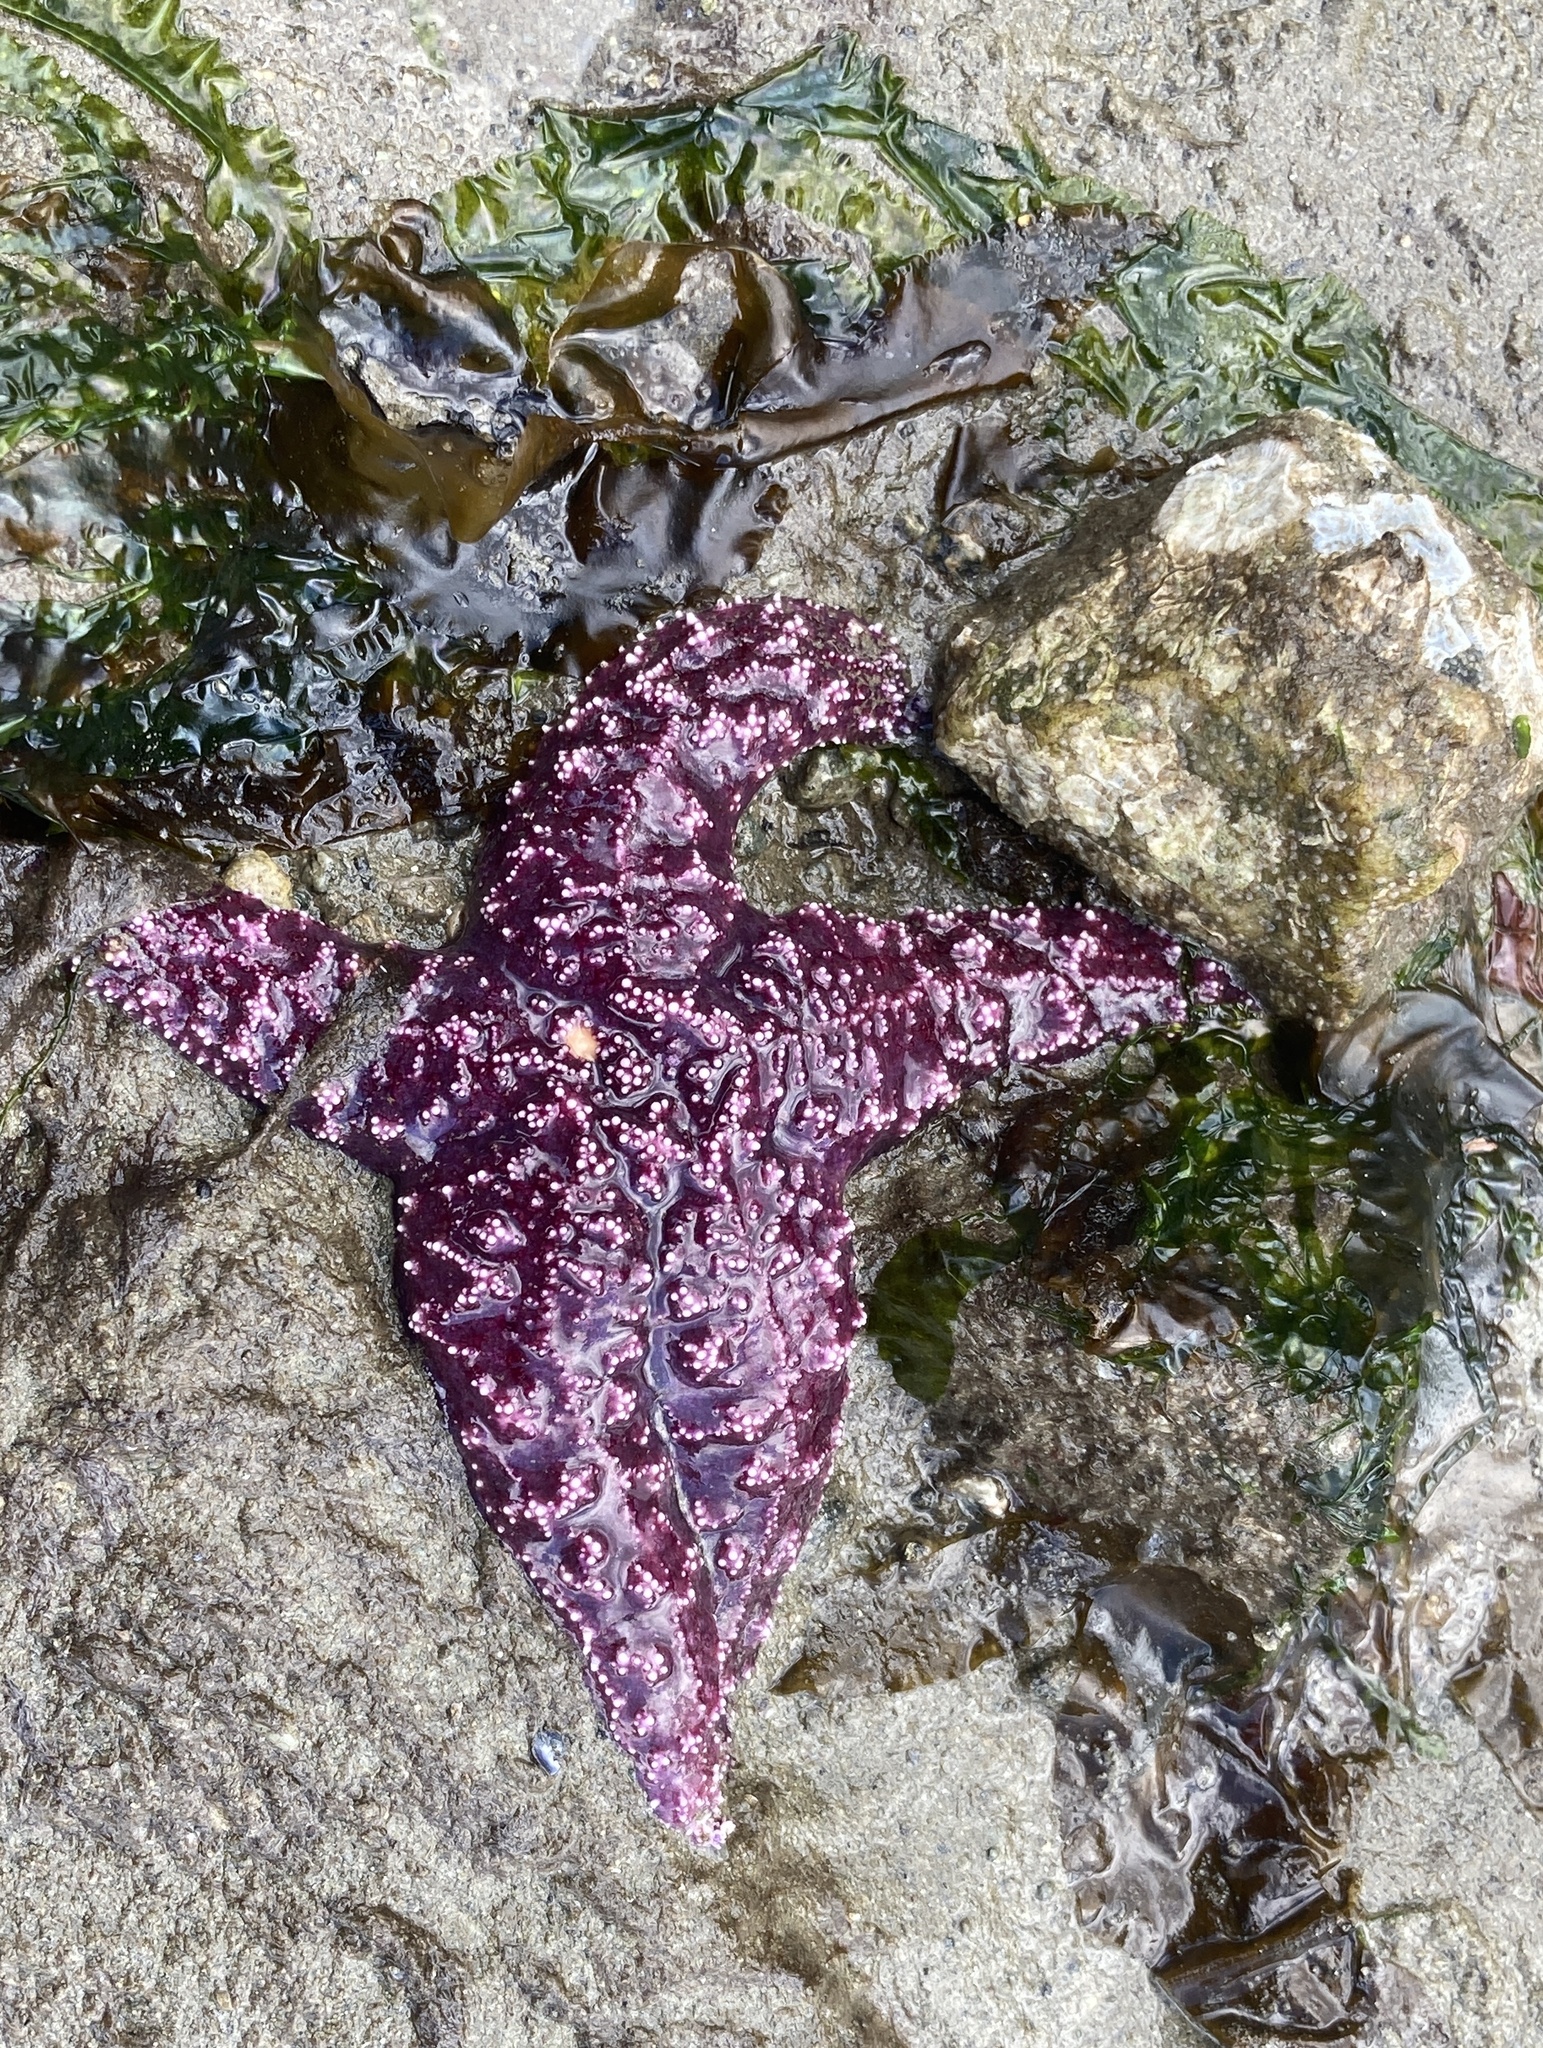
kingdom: Animalia
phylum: Echinodermata
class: Asteroidea
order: Forcipulatida
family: Asteriidae
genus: Pisaster
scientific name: Pisaster ochraceus
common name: Ochre stars
